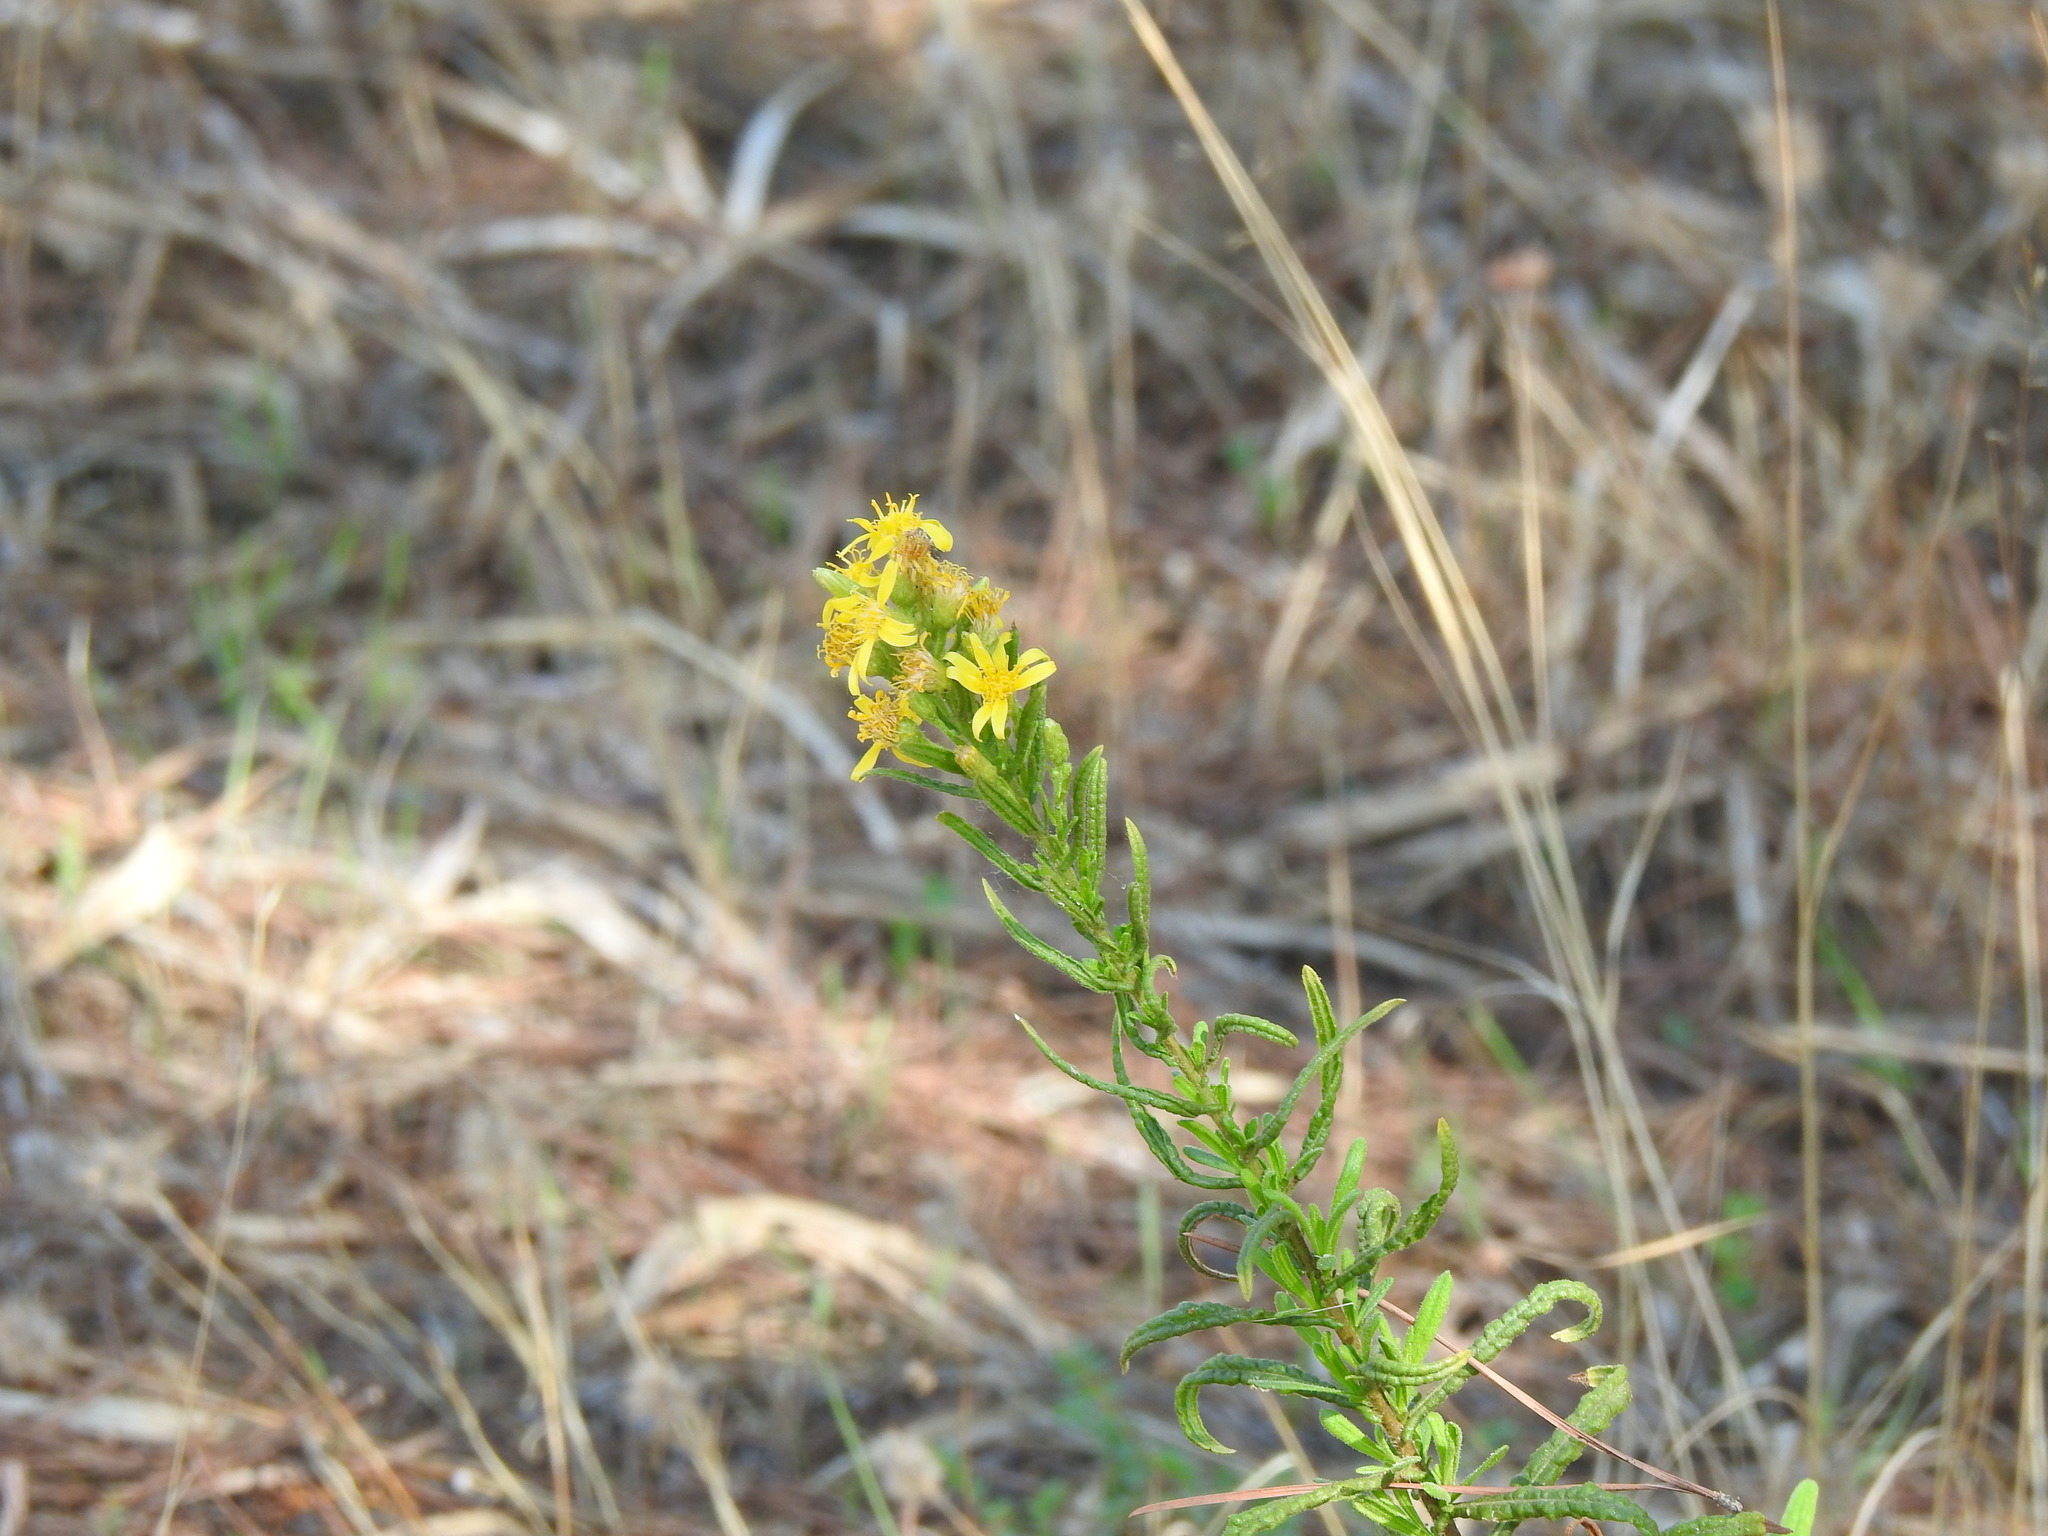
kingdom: Plantae
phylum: Tracheophyta
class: Magnoliopsida
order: Asterales
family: Asteraceae
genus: Dittrichia
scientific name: Dittrichia viscosa
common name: Woody fleabane
